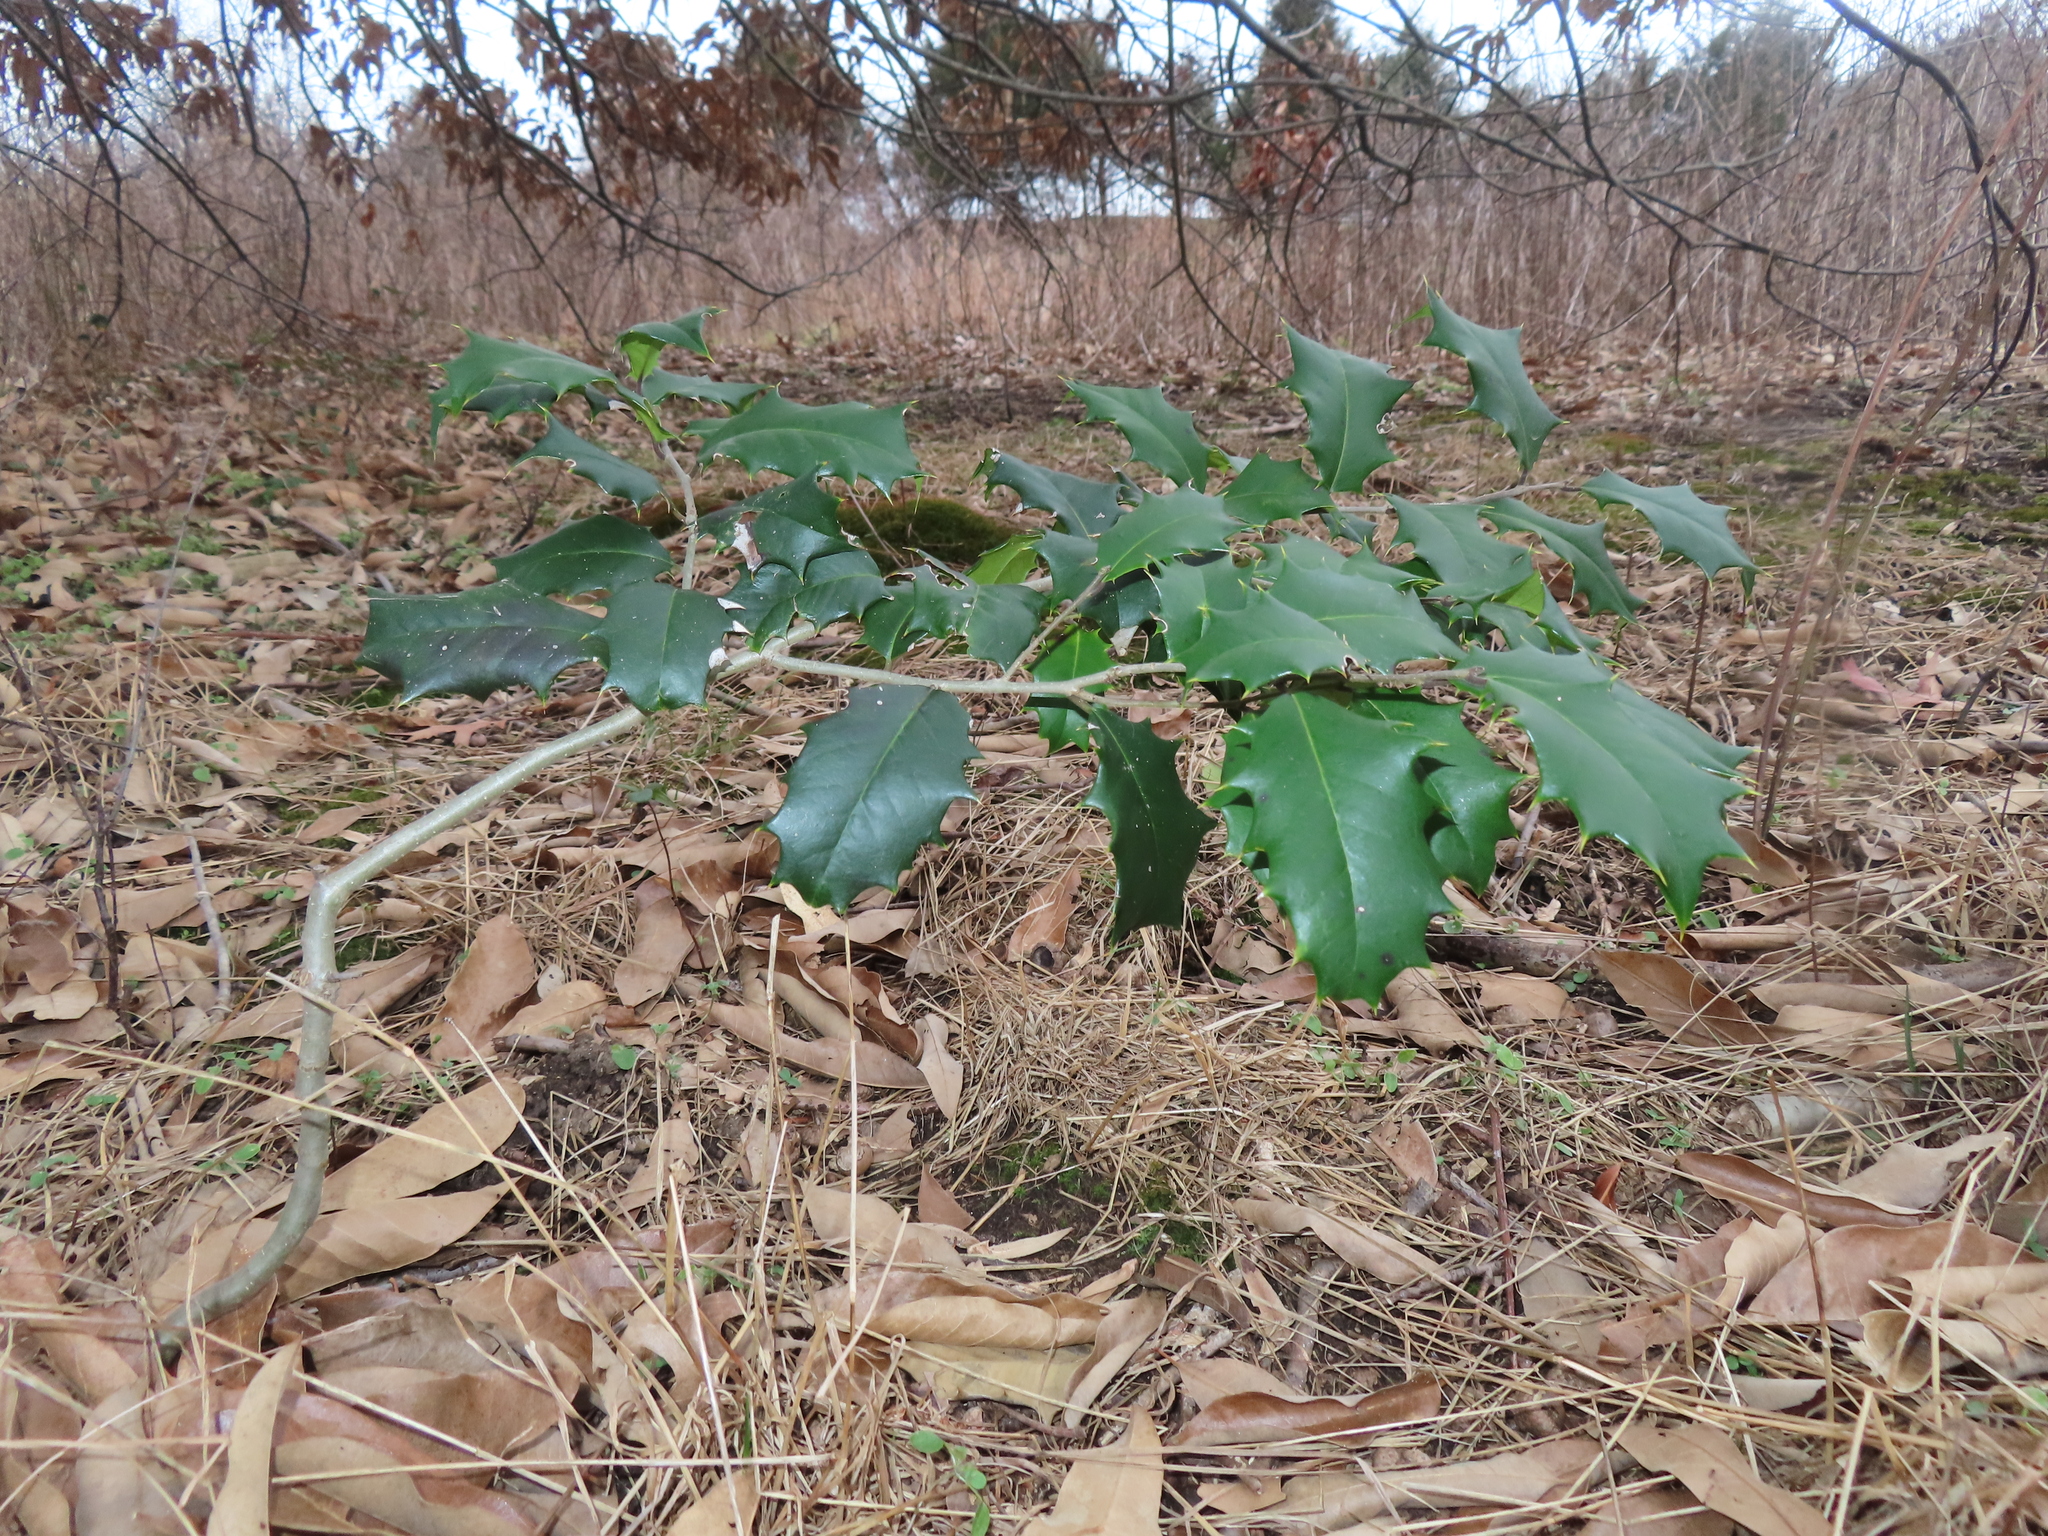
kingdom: Plantae
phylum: Tracheophyta
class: Magnoliopsida
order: Aquifoliales
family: Aquifoliaceae
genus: Ilex
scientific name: Ilex opaca
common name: American holly
